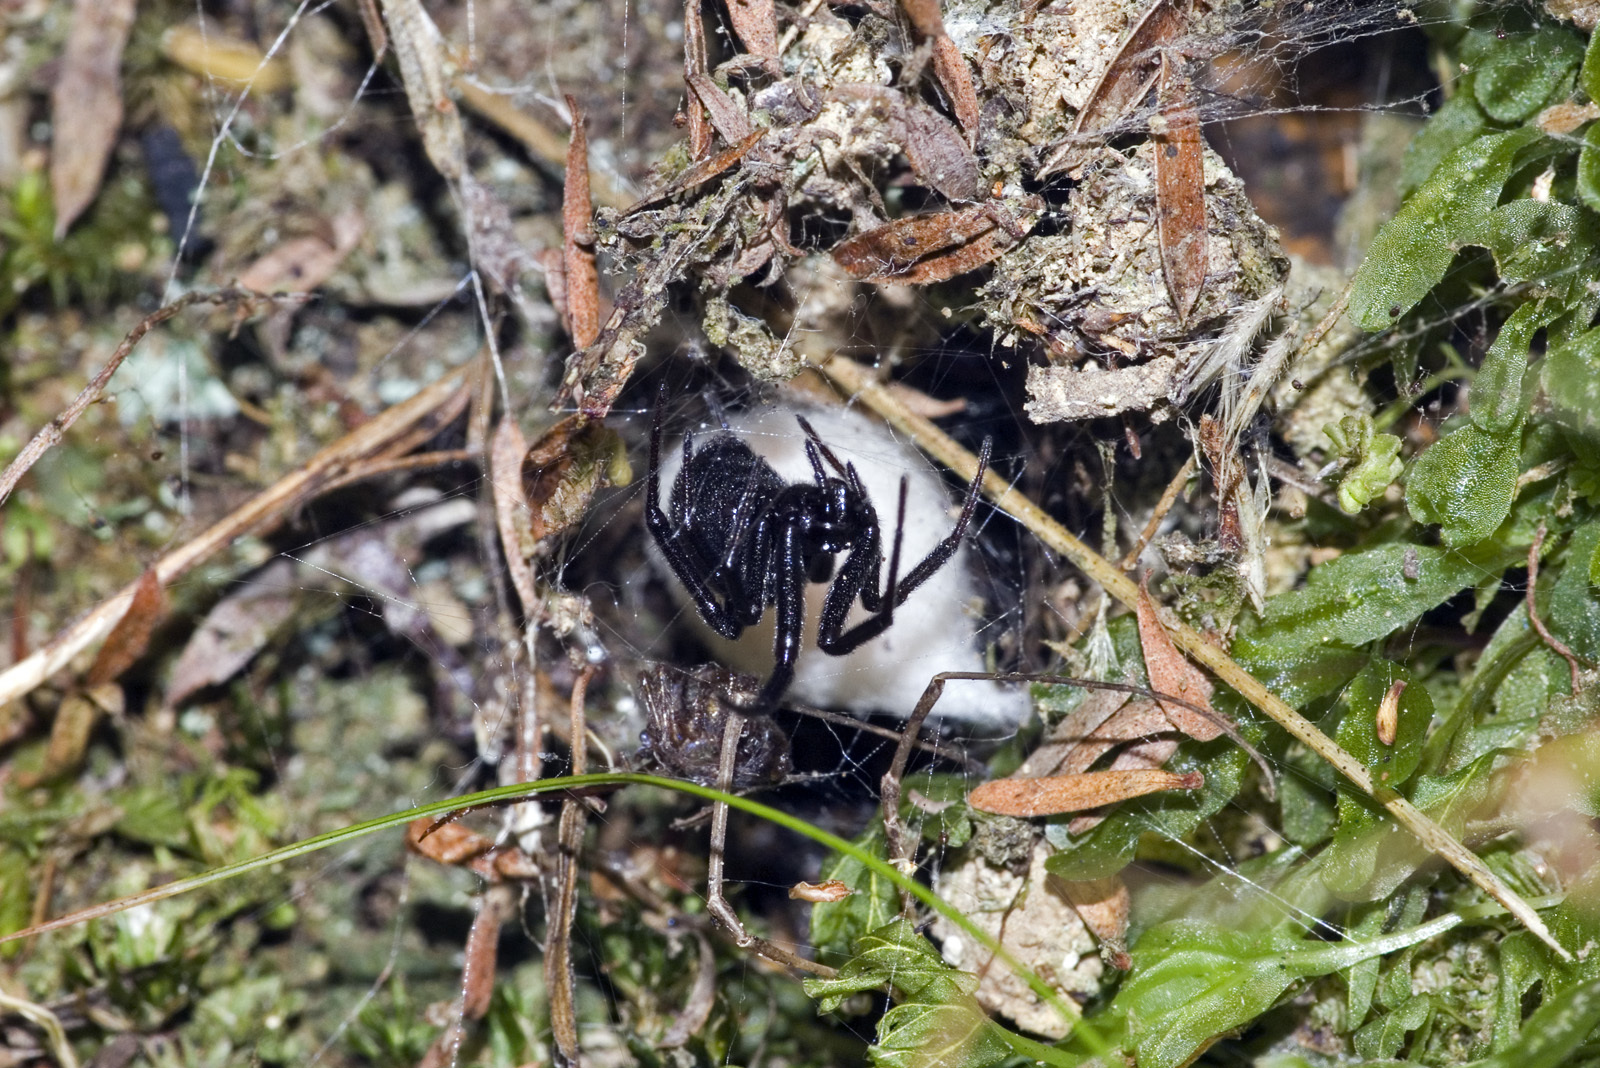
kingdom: Animalia
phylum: Arthropoda
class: Arachnida
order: Araneae
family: Theridiidae
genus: Steatoda
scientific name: Steatoda capensis
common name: Cobweb weaver
